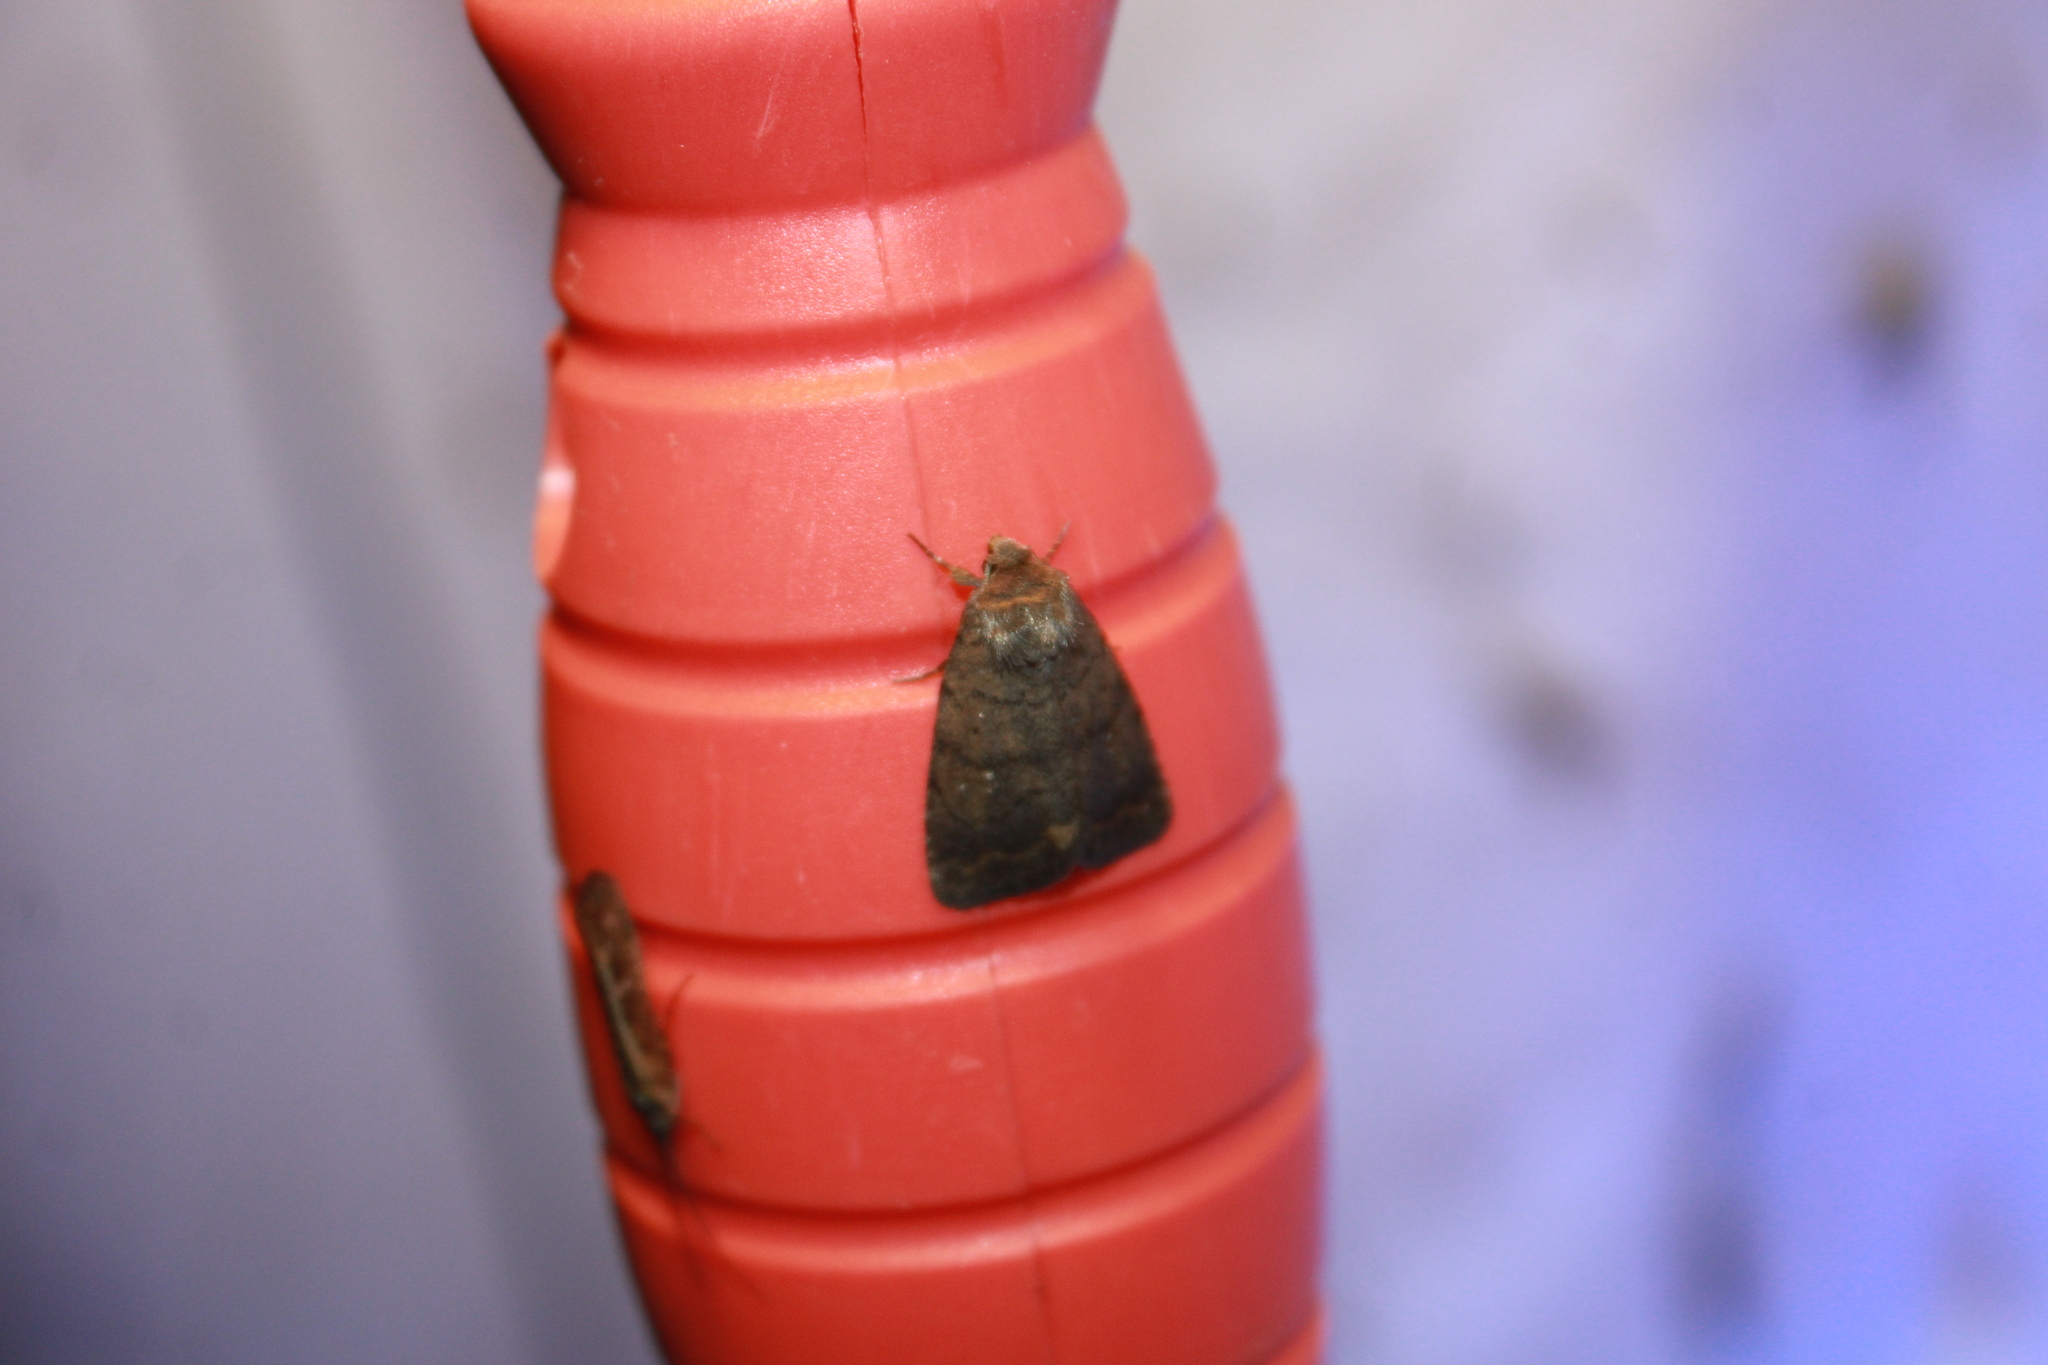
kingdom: Animalia
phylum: Arthropoda
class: Insecta
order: Lepidoptera
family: Noctuidae
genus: Athetis
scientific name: Athetis tarda
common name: Slowpoke moth
